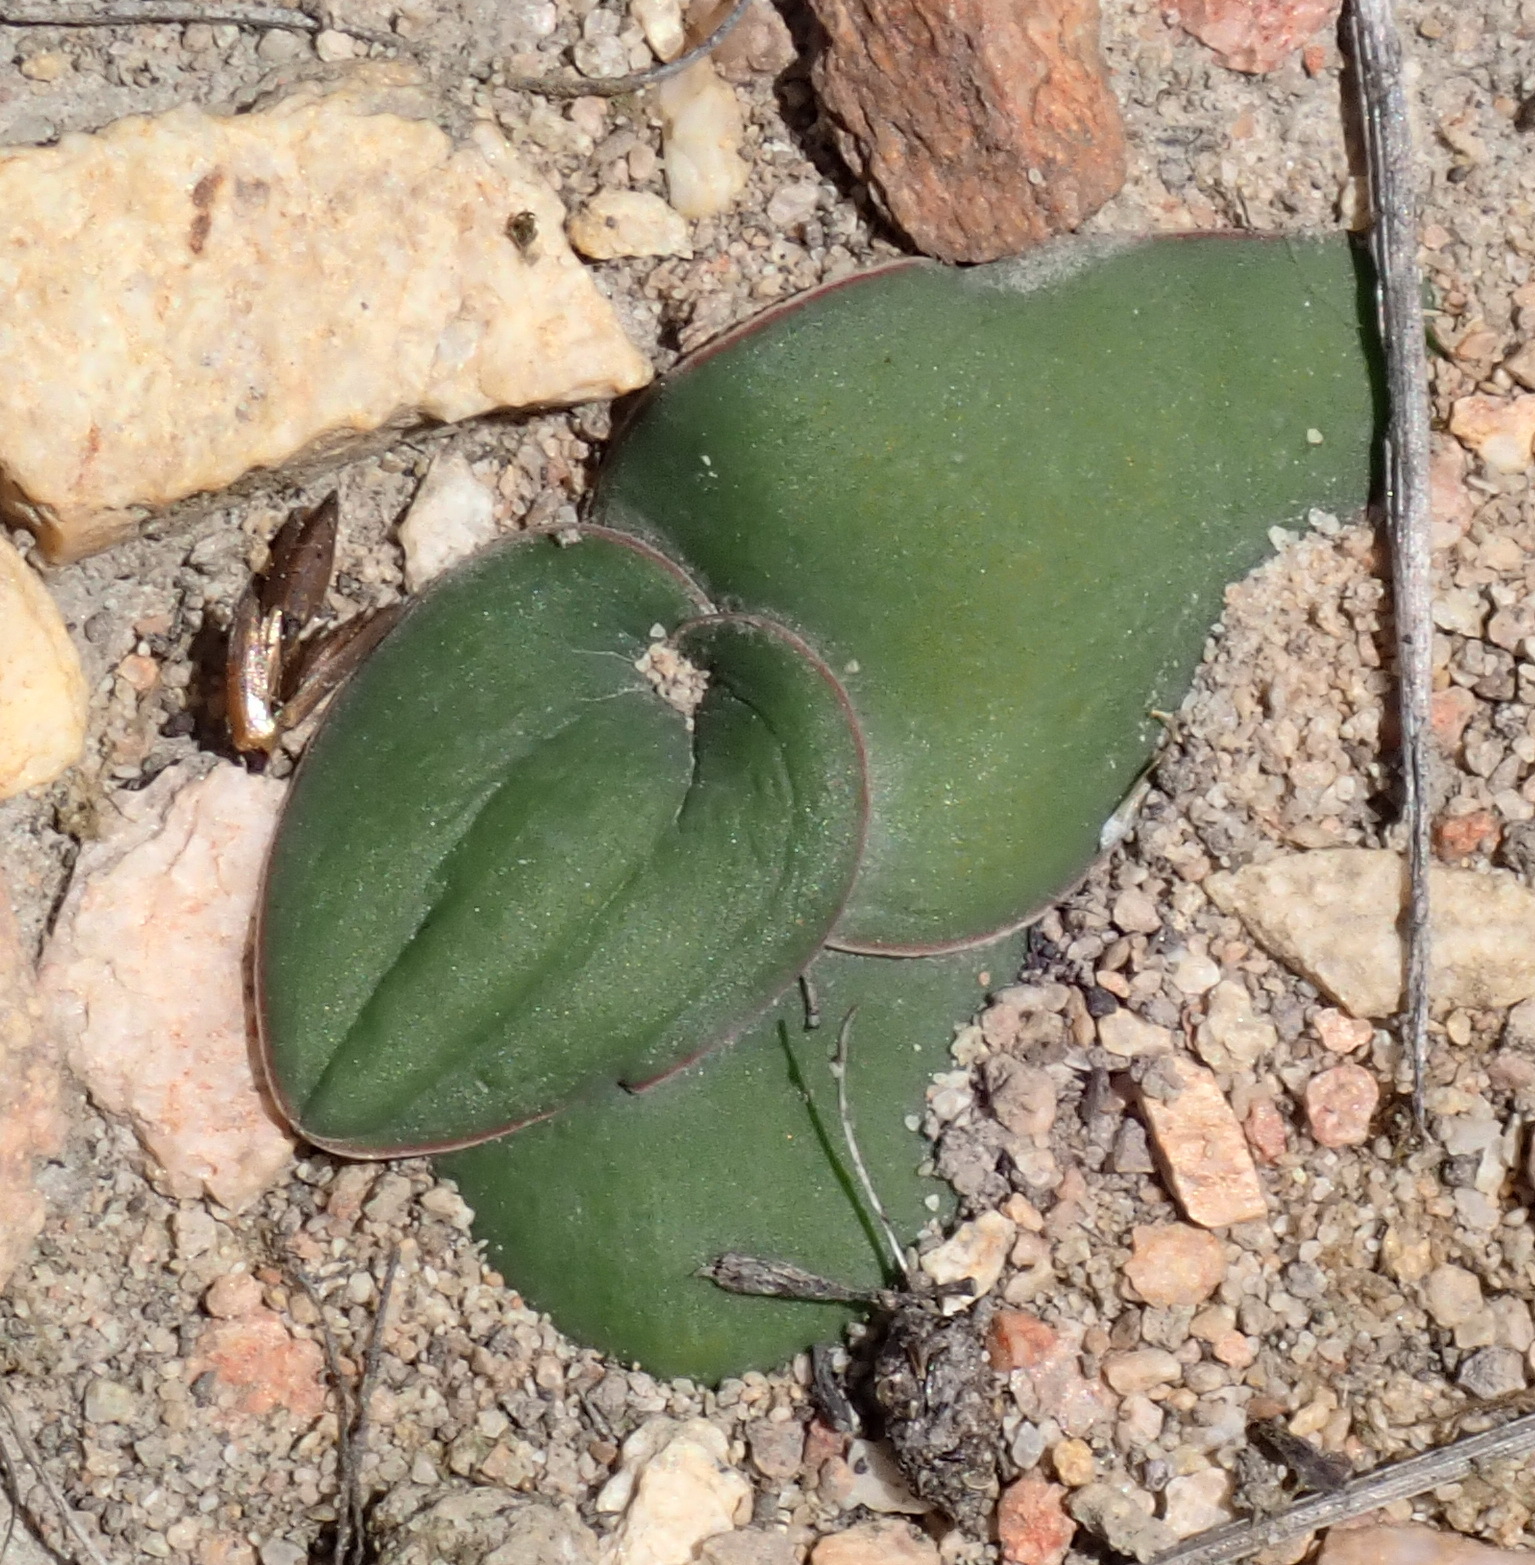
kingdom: Plantae
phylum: Tracheophyta
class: Liliopsida
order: Asparagales
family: Asparagaceae
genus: Drimia
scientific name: Drimia karooica
